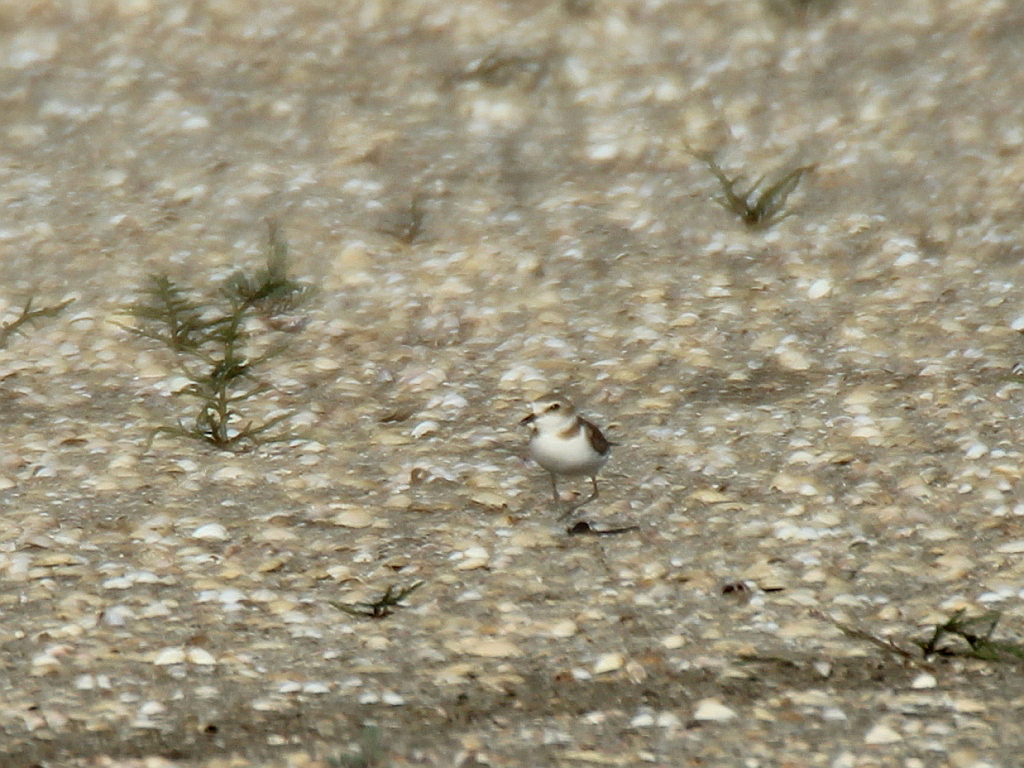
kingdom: Animalia
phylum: Chordata
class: Aves
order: Charadriiformes
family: Charadriidae
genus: Charadrius
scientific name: Charadrius alexandrinus
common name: Kentish plover
